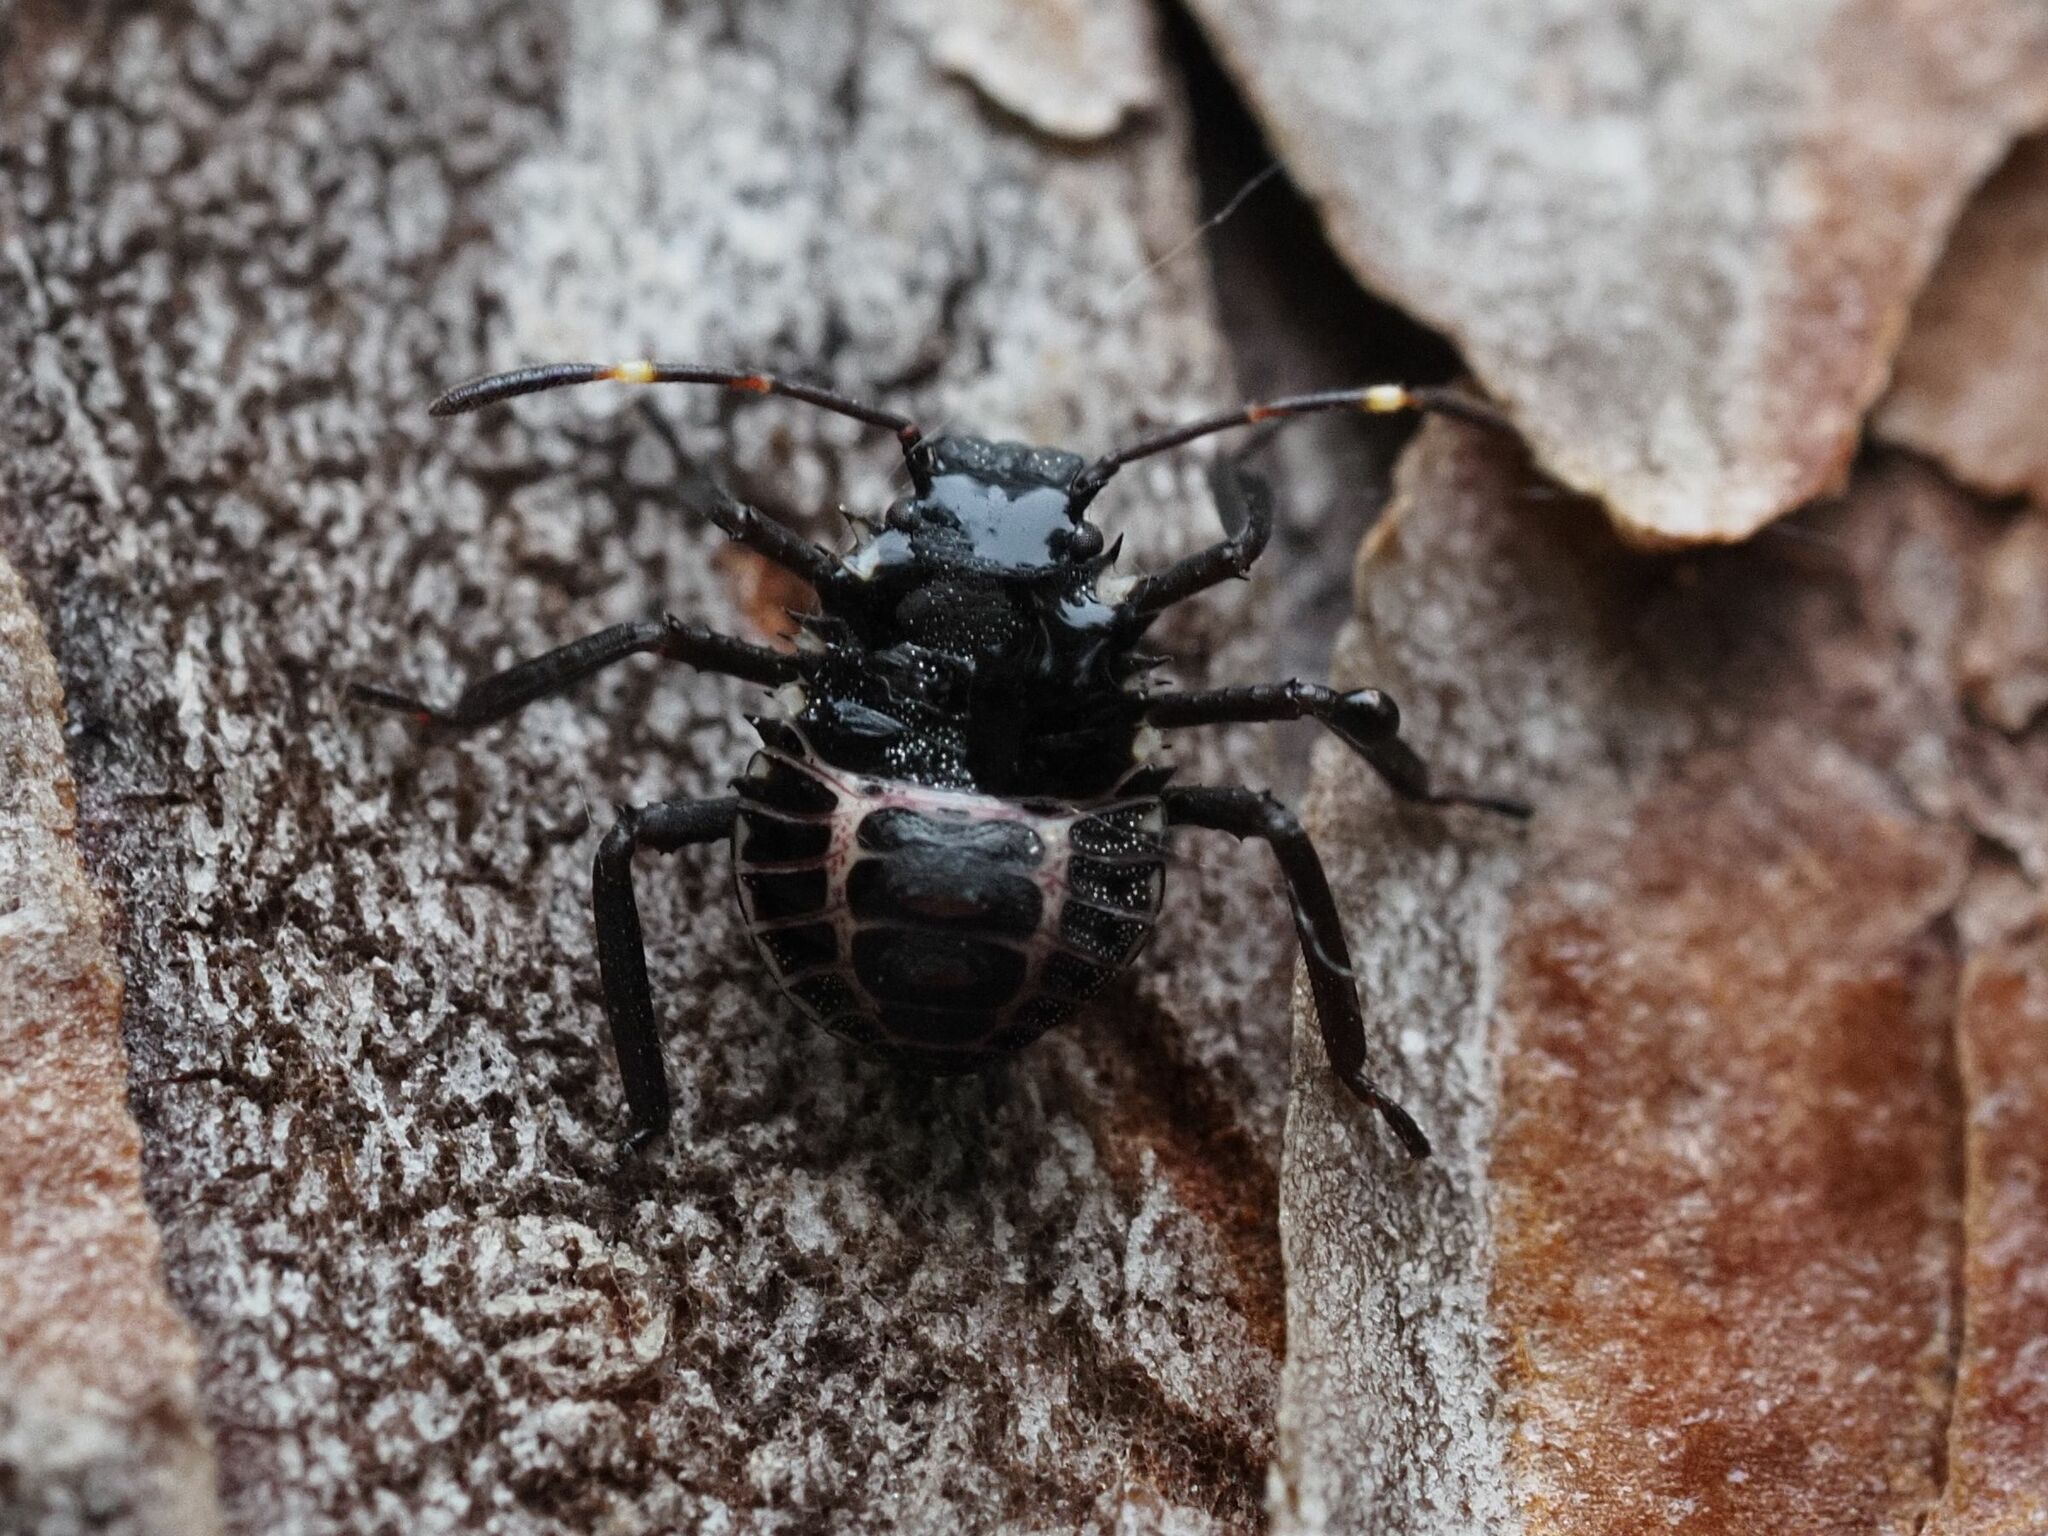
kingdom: Animalia
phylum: Arthropoda
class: Insecta
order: Hemiptera
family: Pentatomidae
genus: Halyomorpha
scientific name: Halyomorpha halys
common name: Brown marmorated stink bug
